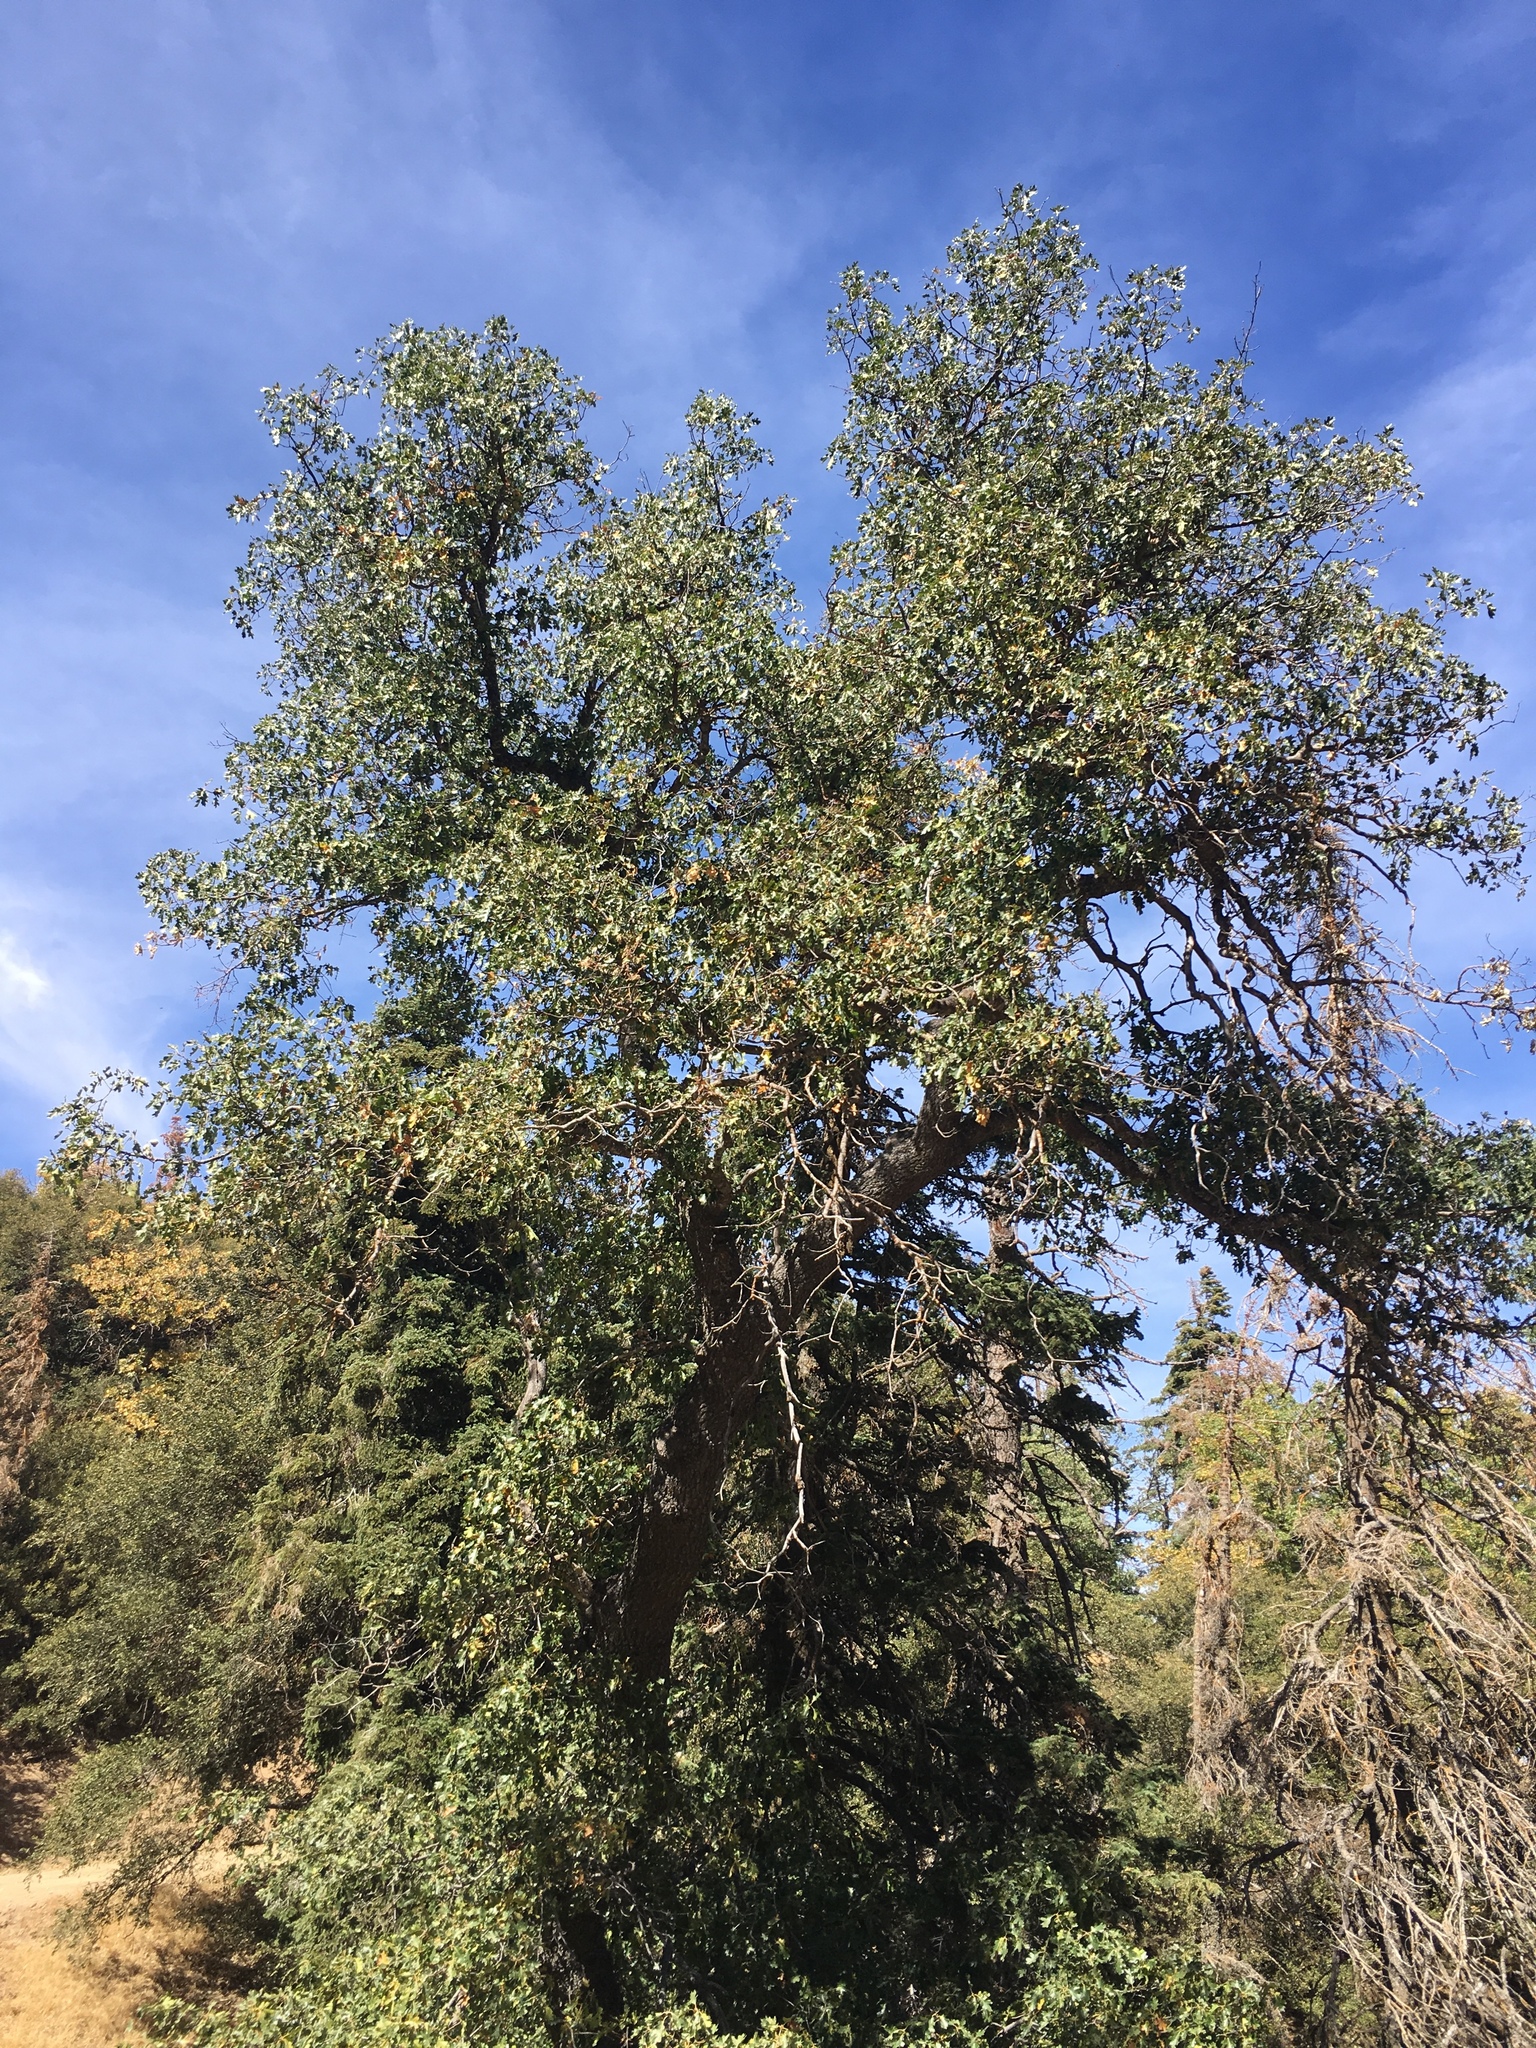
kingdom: Plantae
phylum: Tracheophyta
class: Magnoliopsida
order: Fagales
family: Fagaceae
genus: Quercus
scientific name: Quercus kelloggii
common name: California black oak
